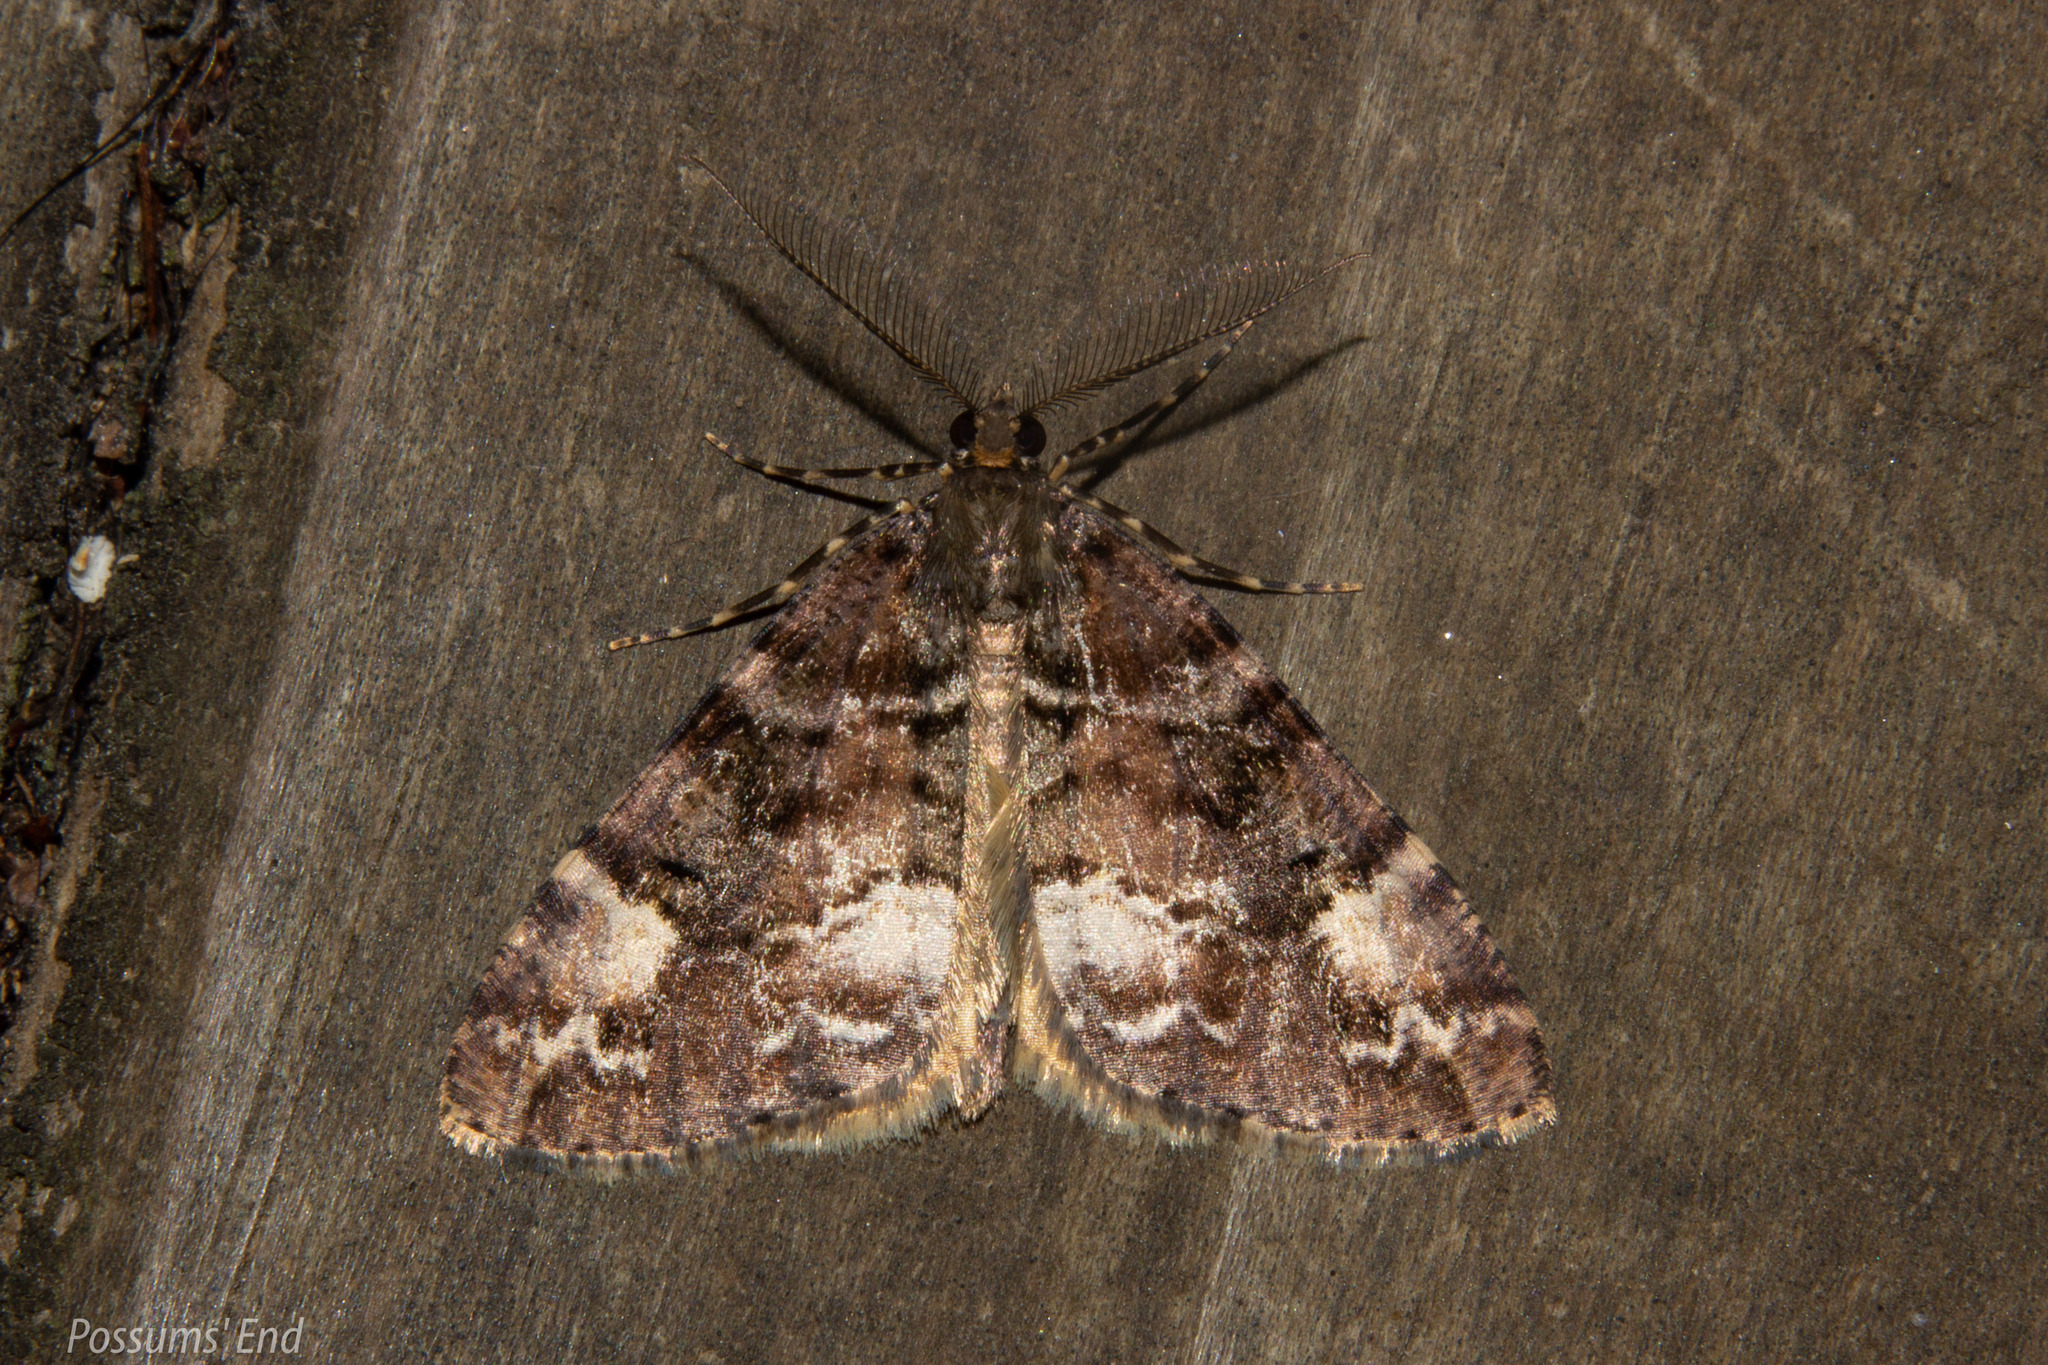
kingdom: Animalia
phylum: Arthropoda
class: Insecta
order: Lepidoptera
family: Geometridae
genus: Pseudocoremia
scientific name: Pseudocoremia productata
